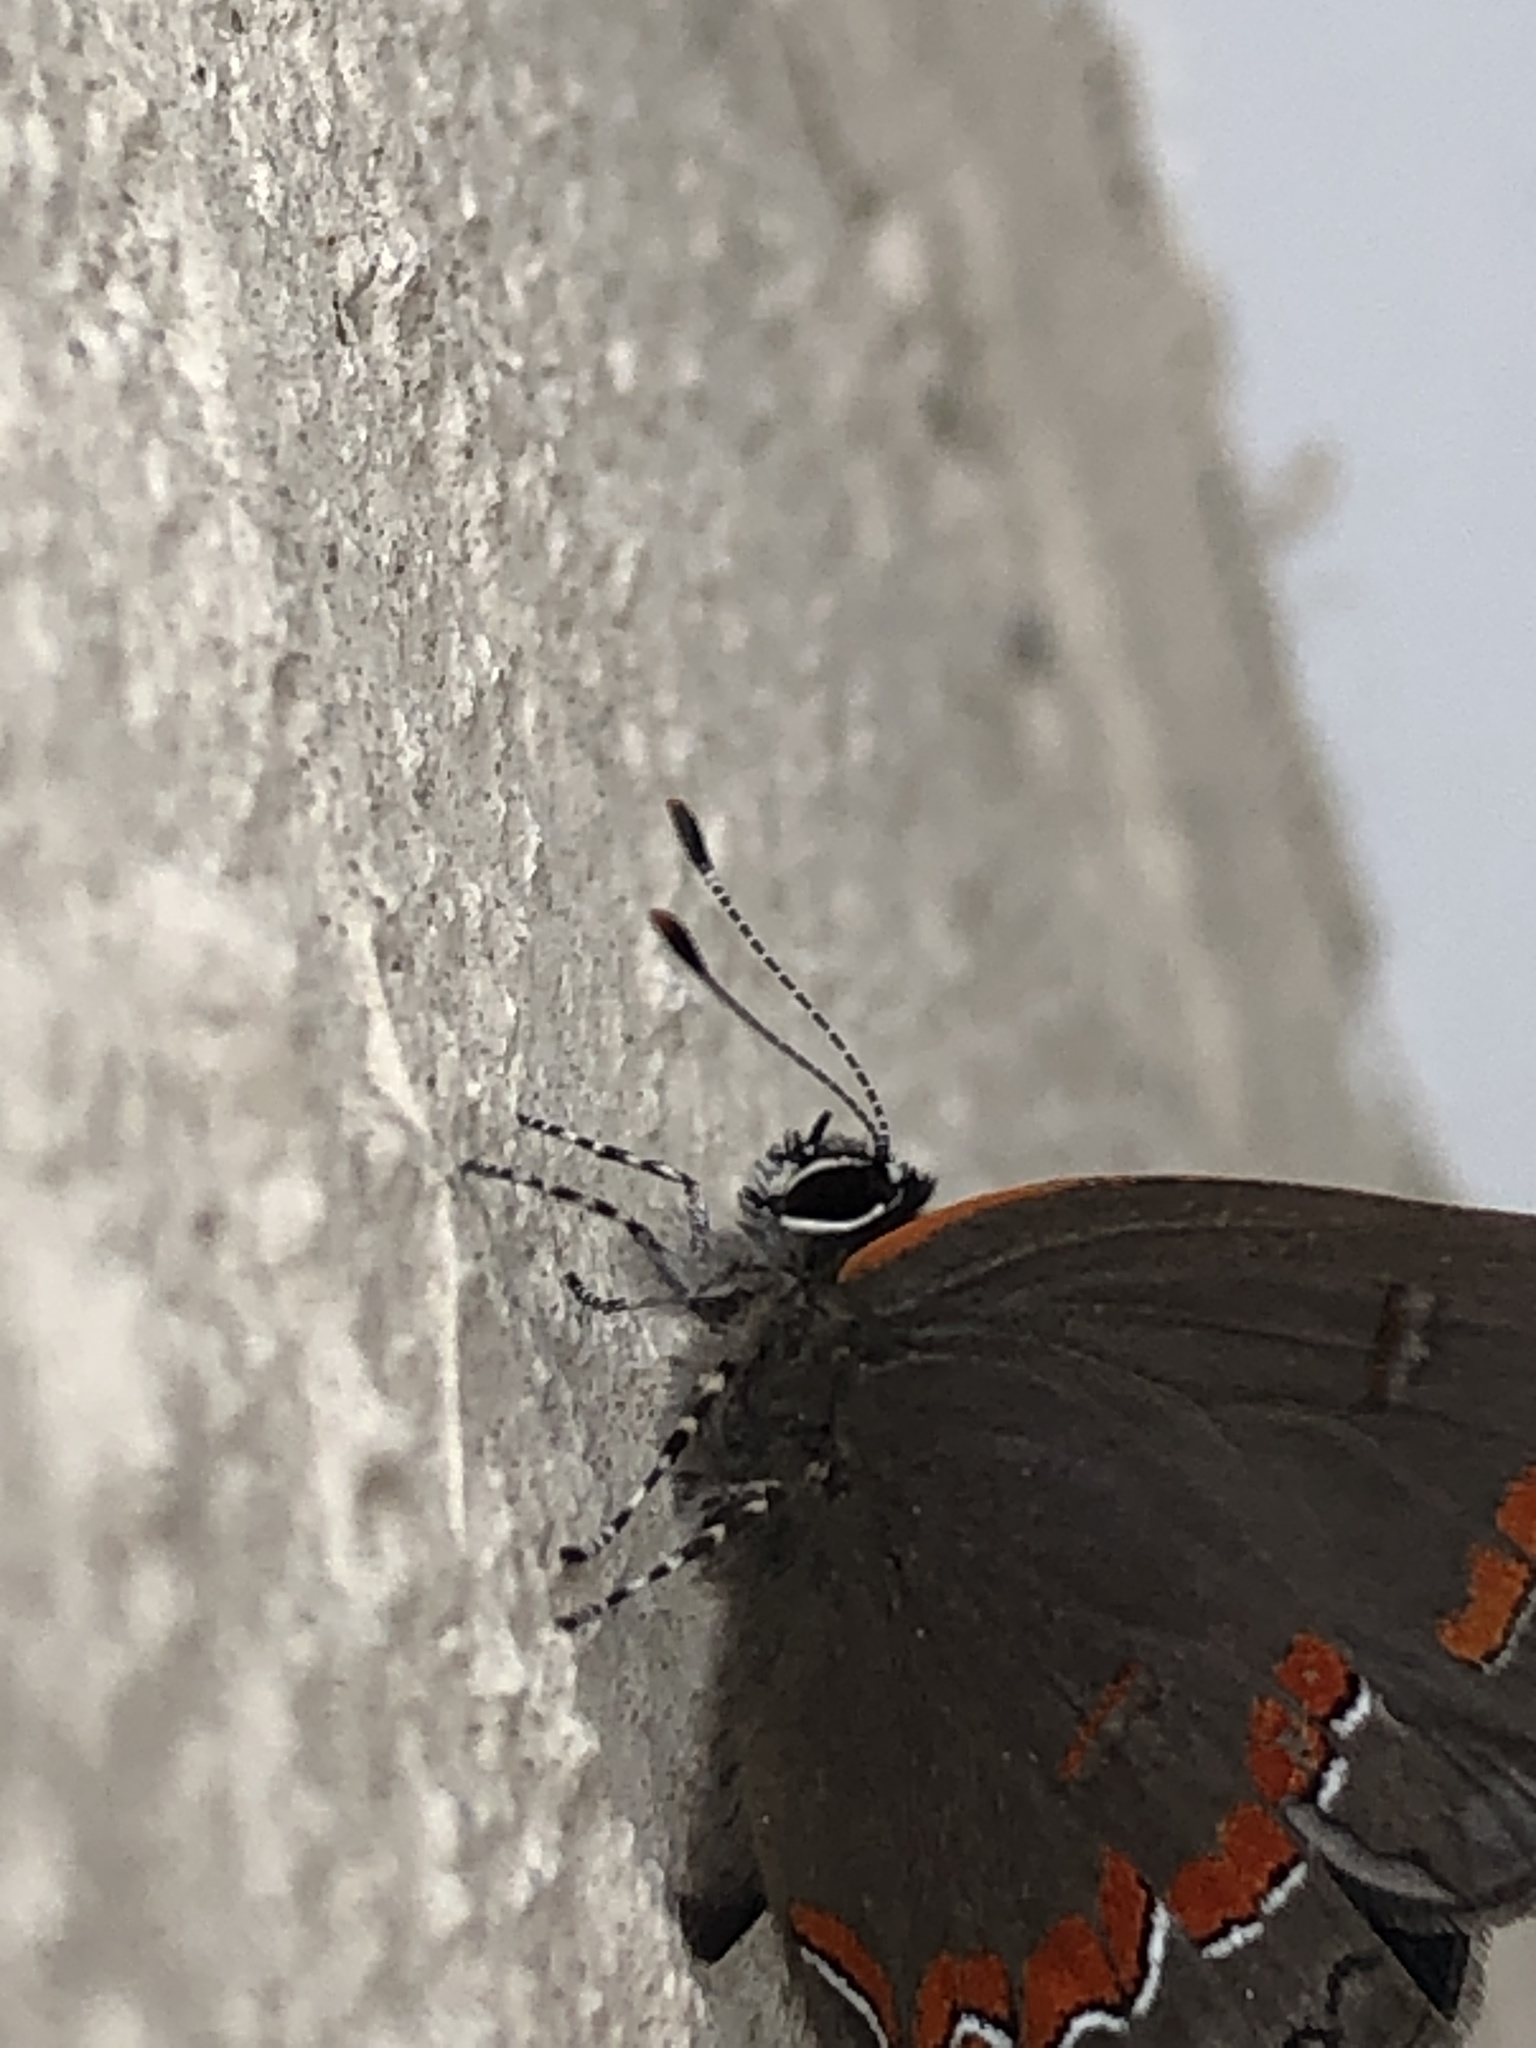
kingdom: Animalia
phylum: Arthropoda
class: Insecta
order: Lepidoptera
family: Lycaenidae
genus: Calycopis
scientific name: Calycopis cecrops
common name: Red-banded hairstreak
